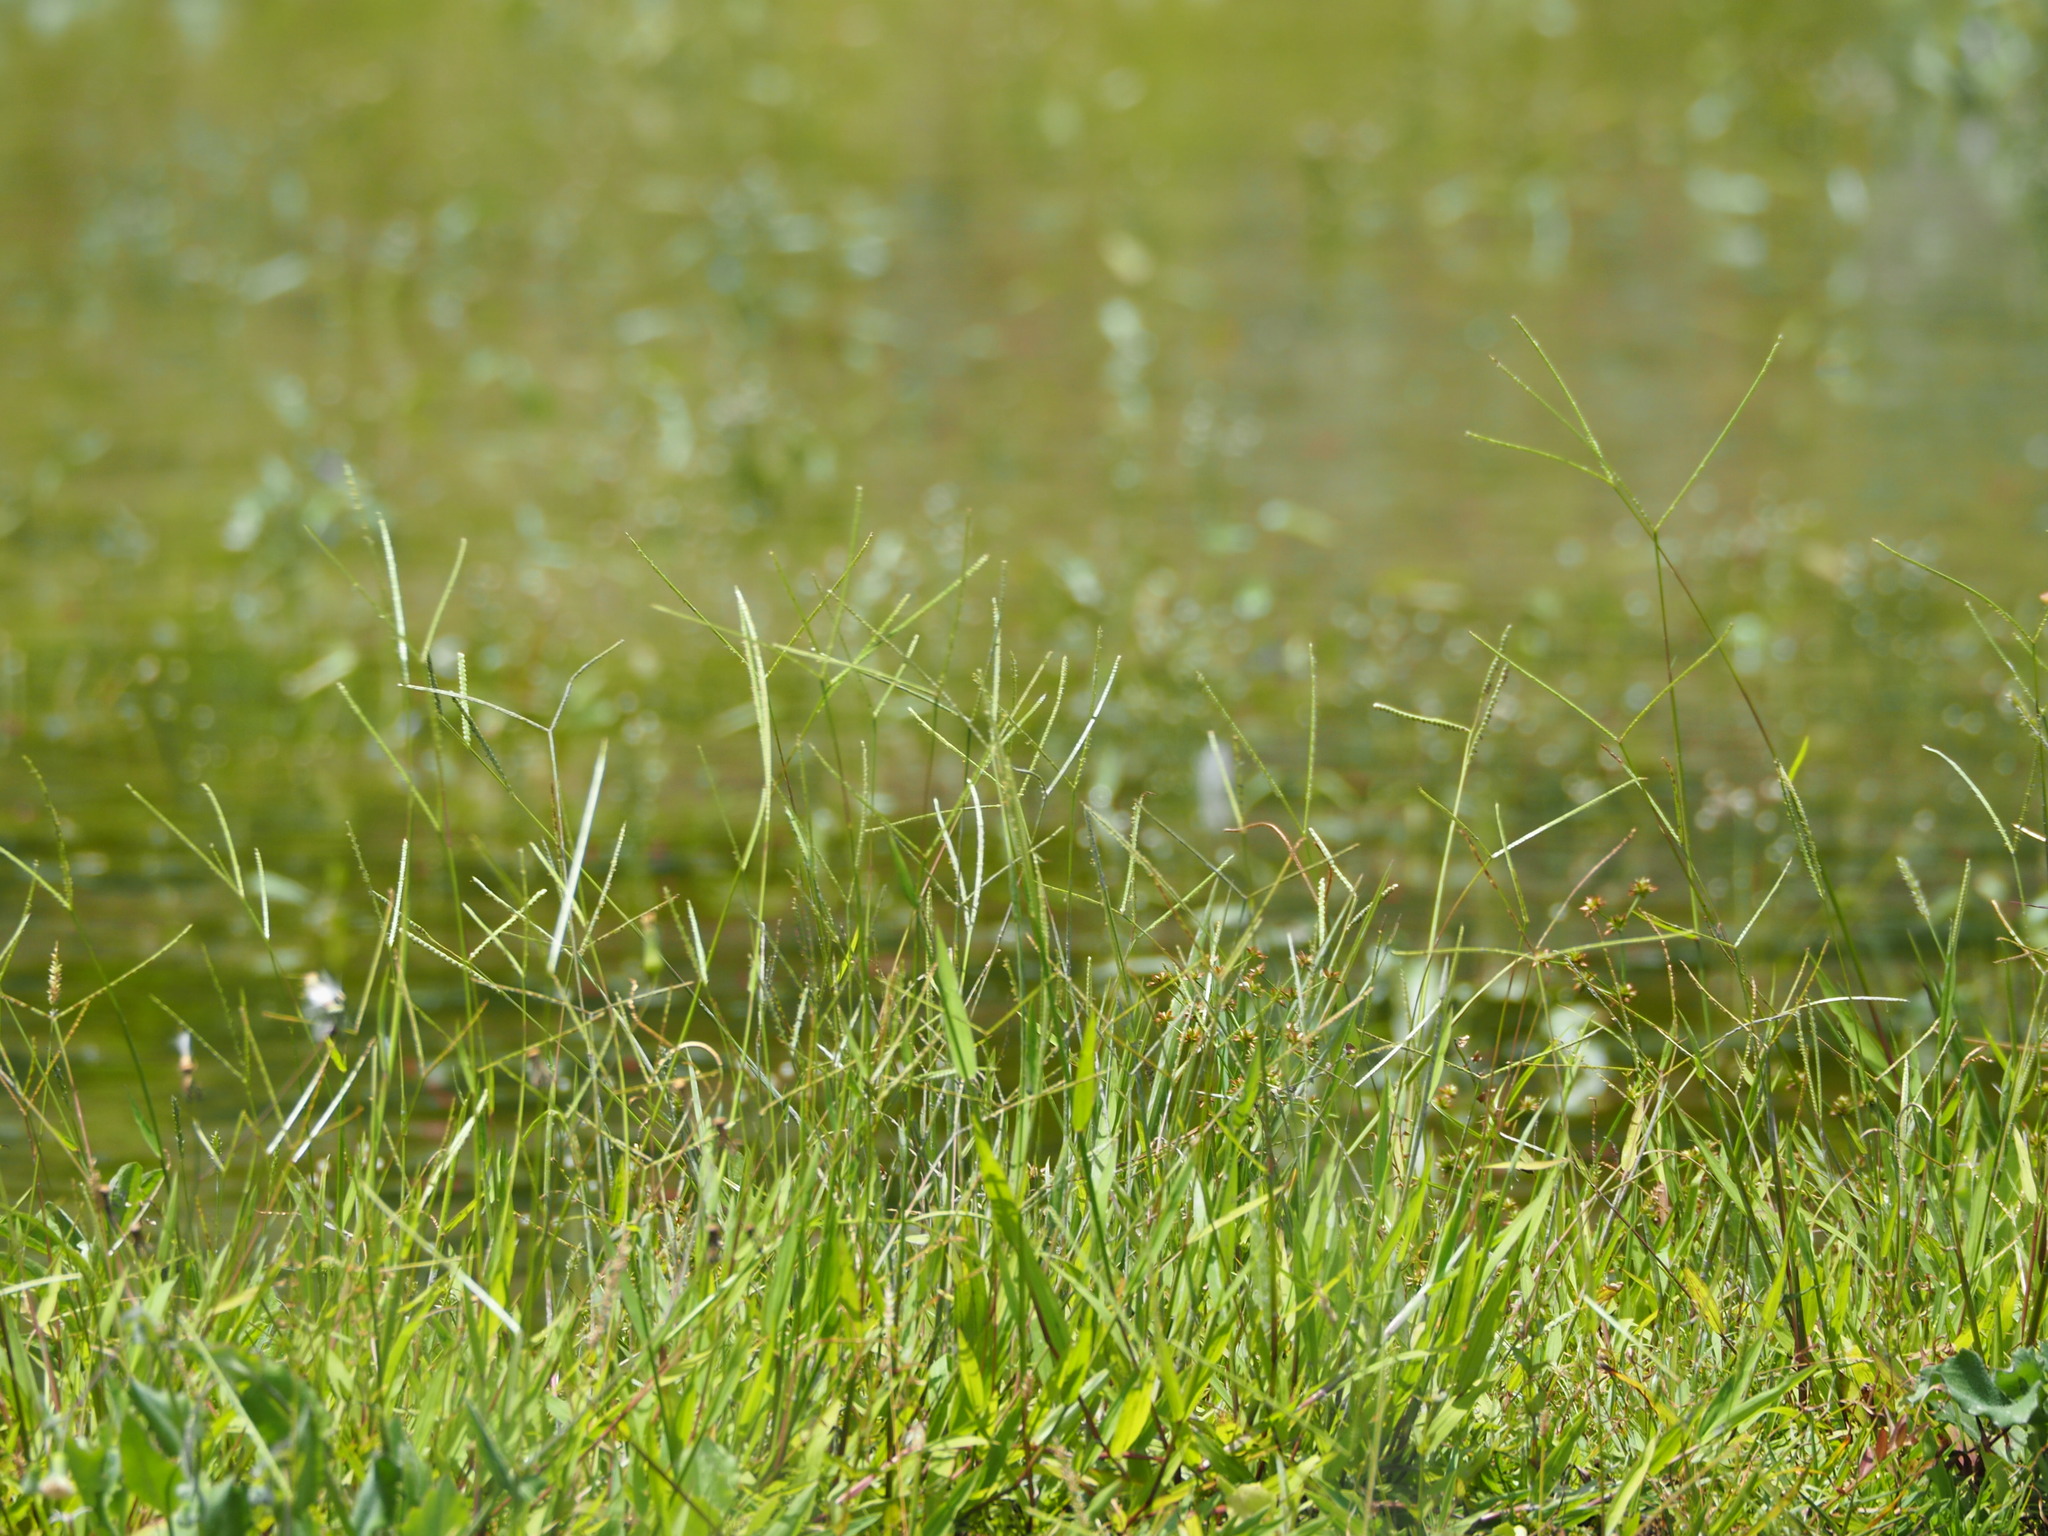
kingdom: Plantae
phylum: Tracheophyta
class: Liliopsida
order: Poales
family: Poaceae
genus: Paspalum
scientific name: Paspalum conjugatum
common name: Hilograss
